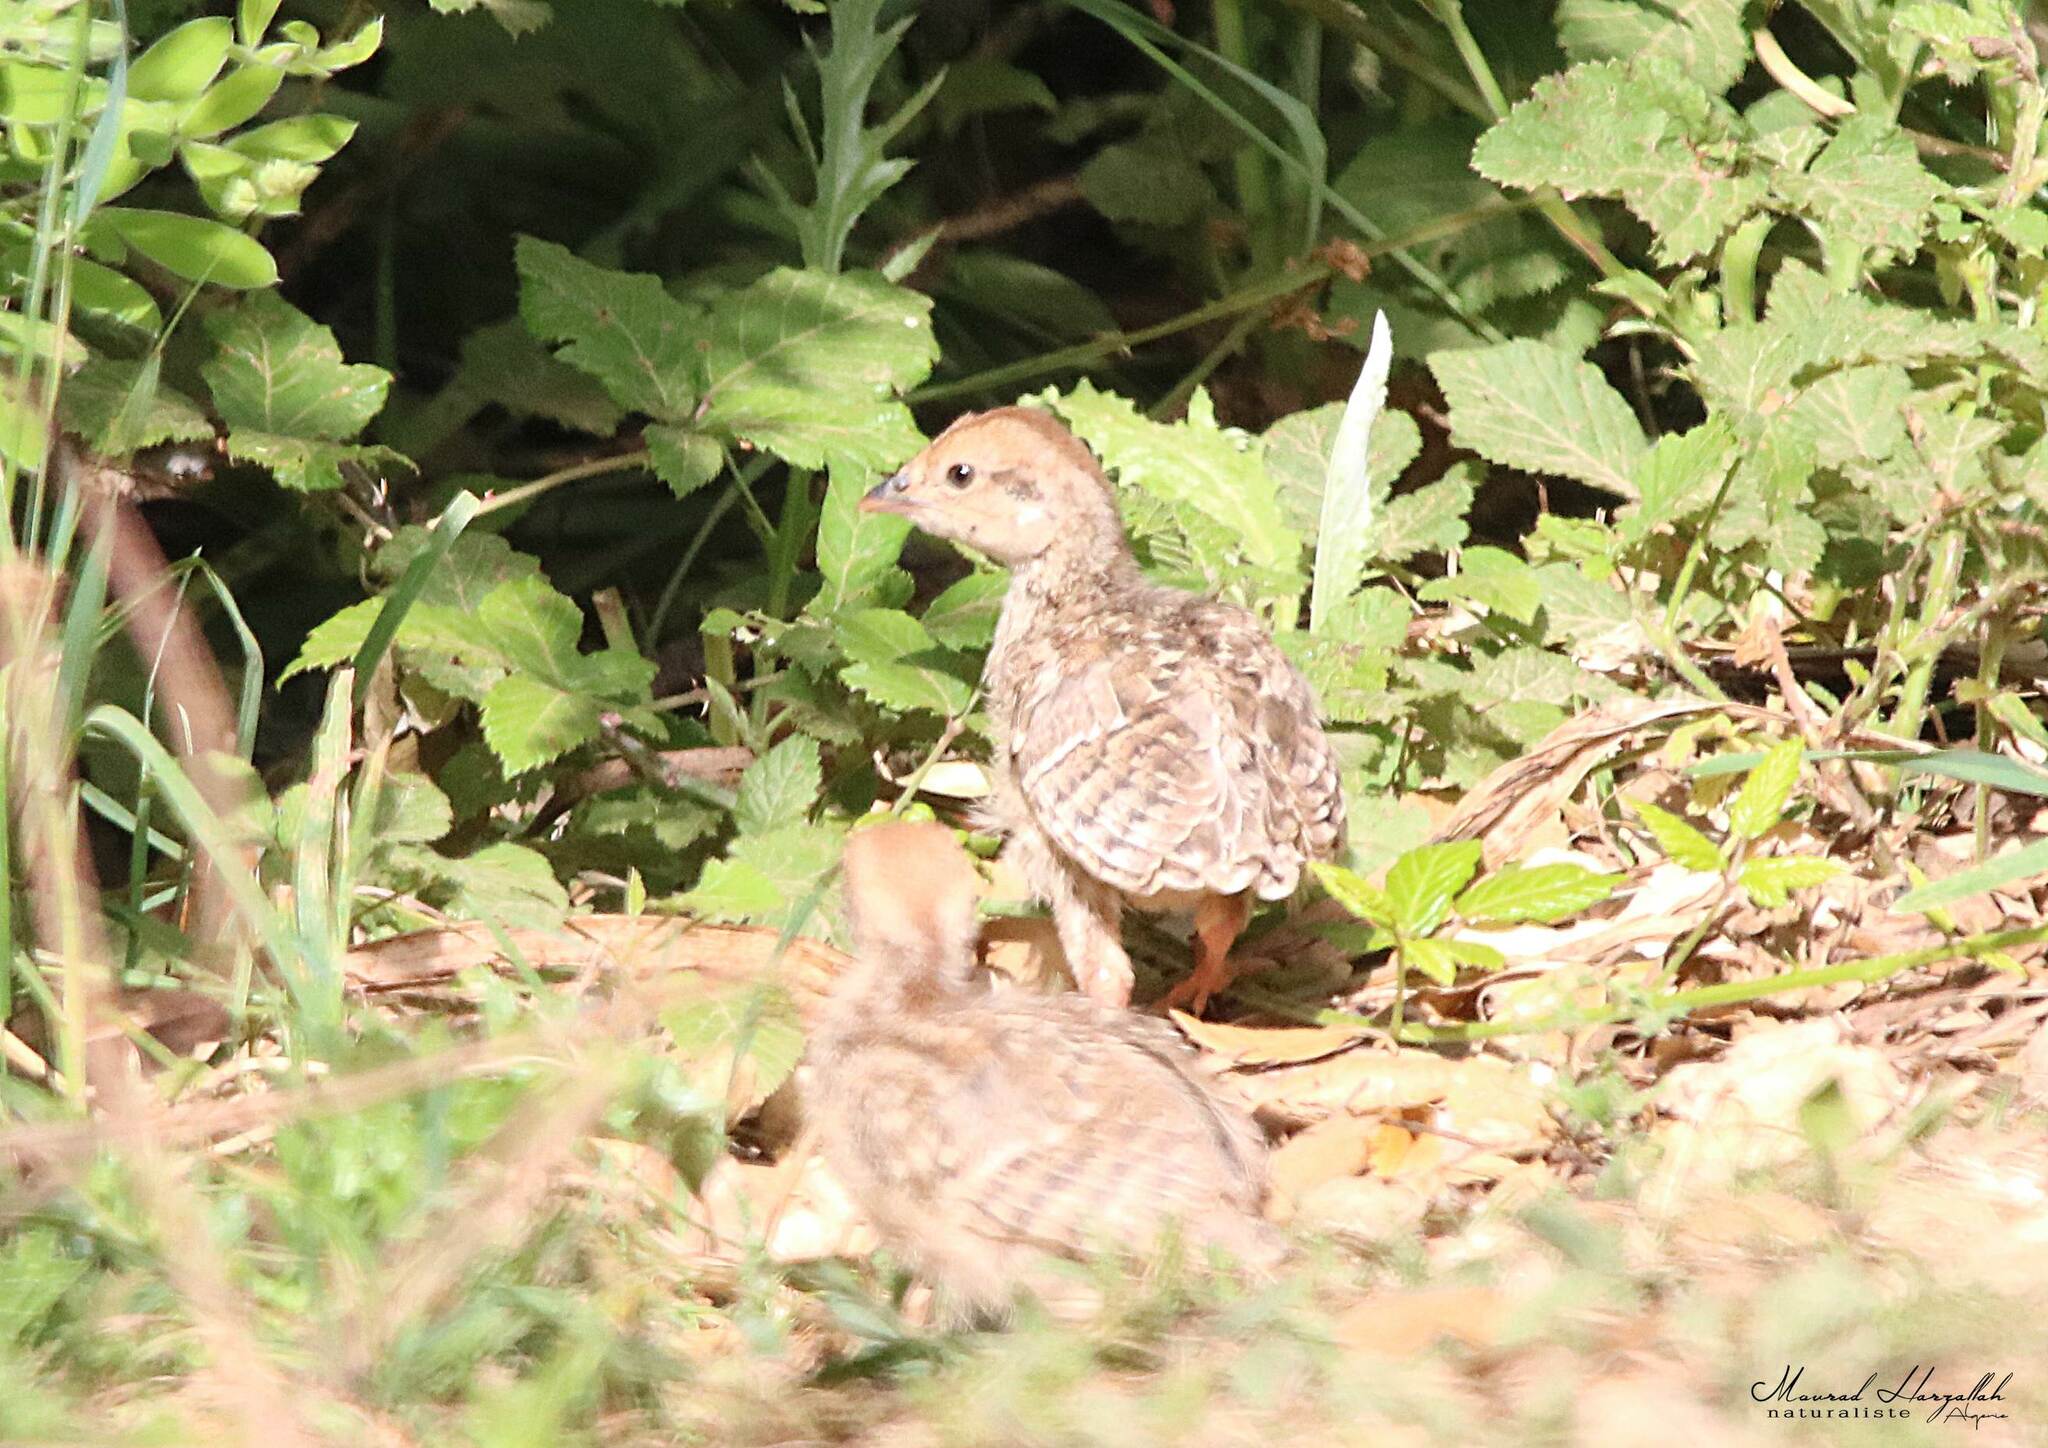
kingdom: Animalia
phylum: Chordata
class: Aves
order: Galliformes
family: Phasianidae
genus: Alectoris
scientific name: Alectoris barbara
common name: Barbary partridge
